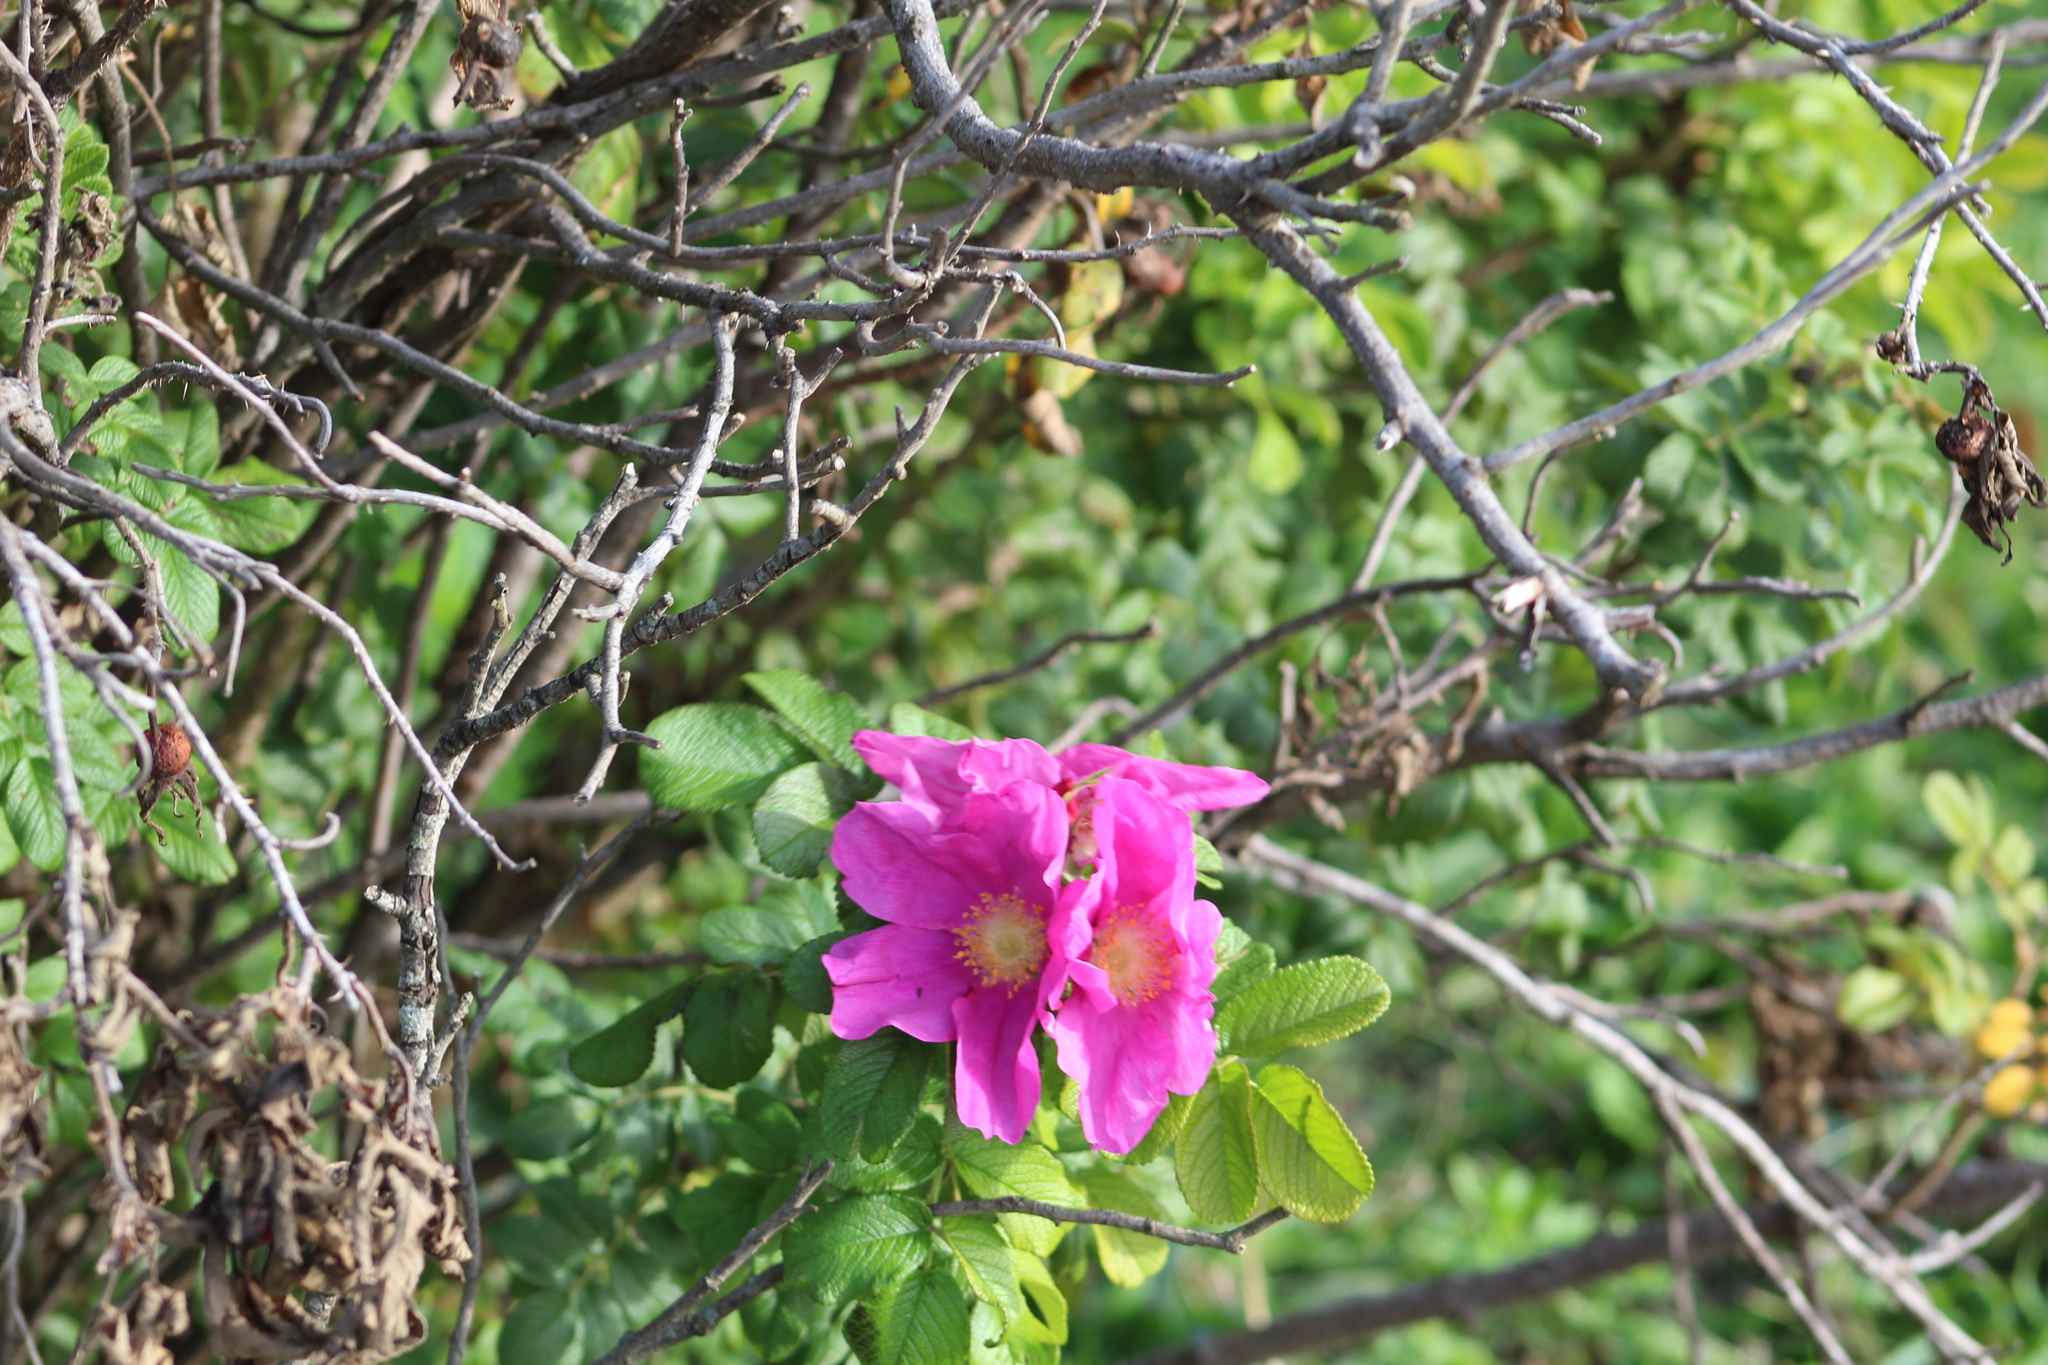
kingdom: Plantae
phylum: Tracheophyta
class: Magnoliopsida
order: Rosales
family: Rosaceae
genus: Rosa
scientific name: Rosa rugosa
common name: Japanese rose
